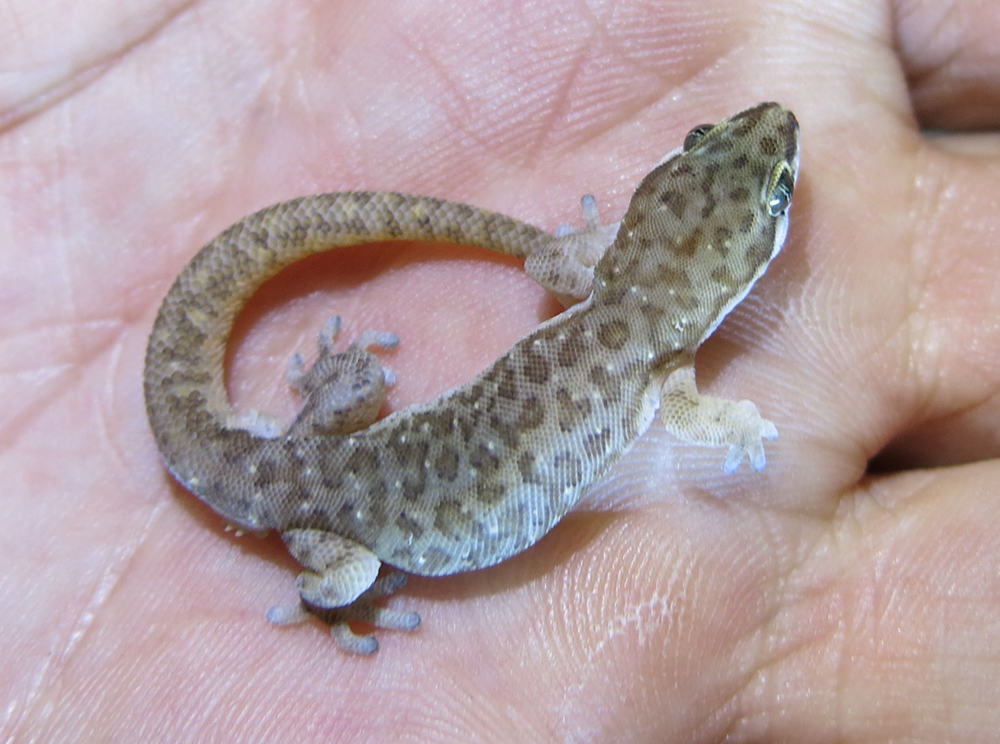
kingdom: Animalia
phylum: Chordata
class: Squamata
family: Gekkonidae
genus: Pachydactylus
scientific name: Pachydactylus punctatus
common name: Pointed thick-toed gecko
